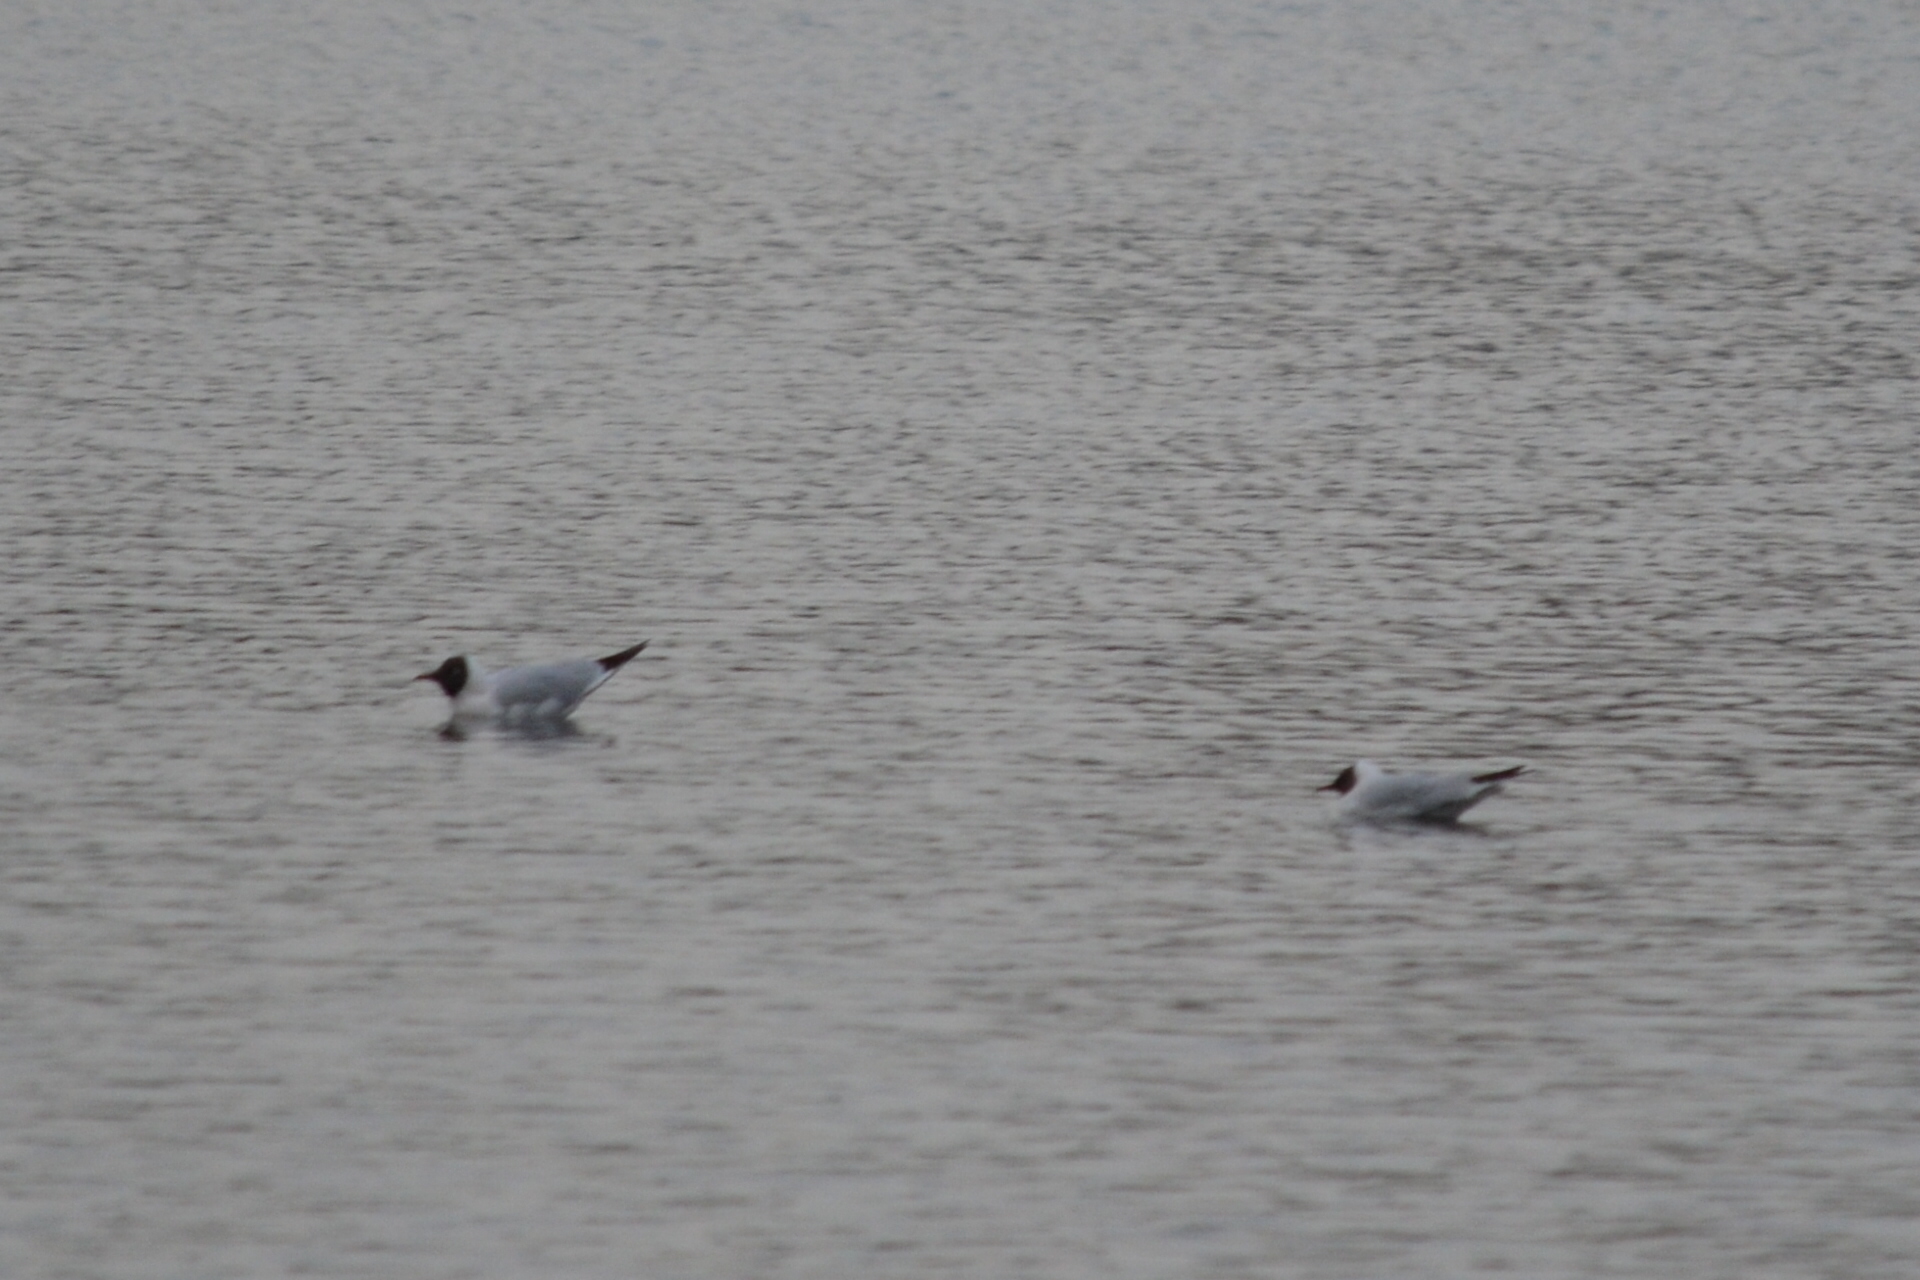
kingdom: Animalia
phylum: Chordata
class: Aves
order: Charadriiformes
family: Laridae
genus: Chroicocephalus
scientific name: Chroicocephalus ridibundus
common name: Black-headed gull
